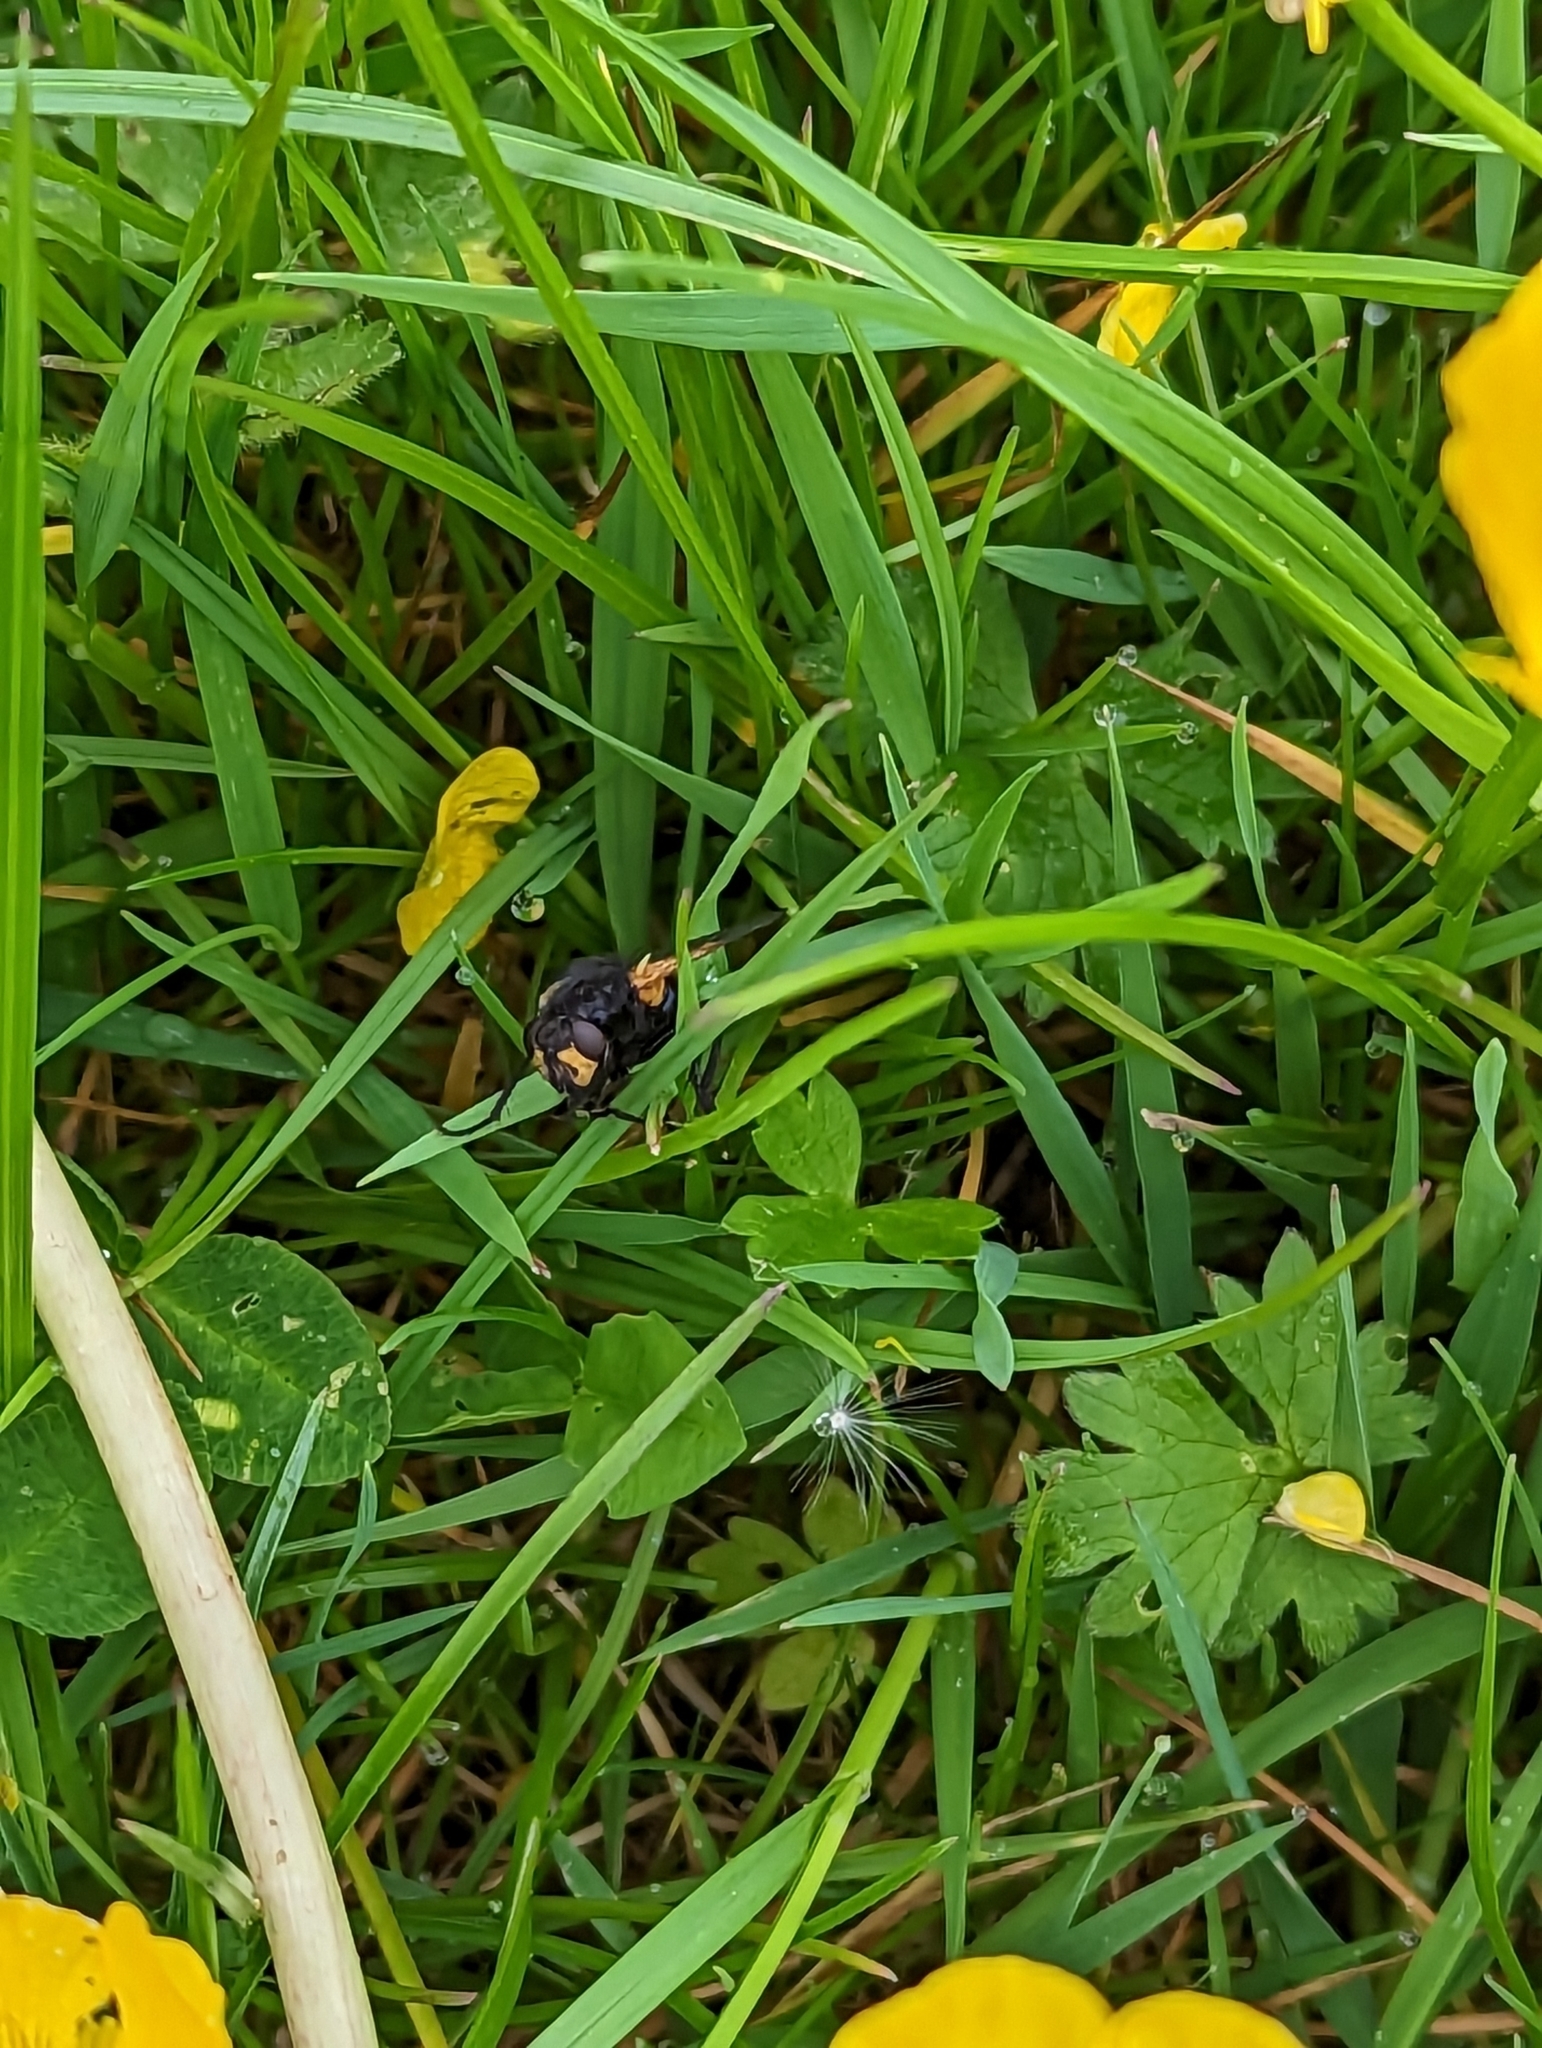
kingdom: Animalia
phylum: Arthropoda
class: Insecta
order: Diptera
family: Muscidae
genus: Mesembrina
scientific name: Mesembrina meridiana
